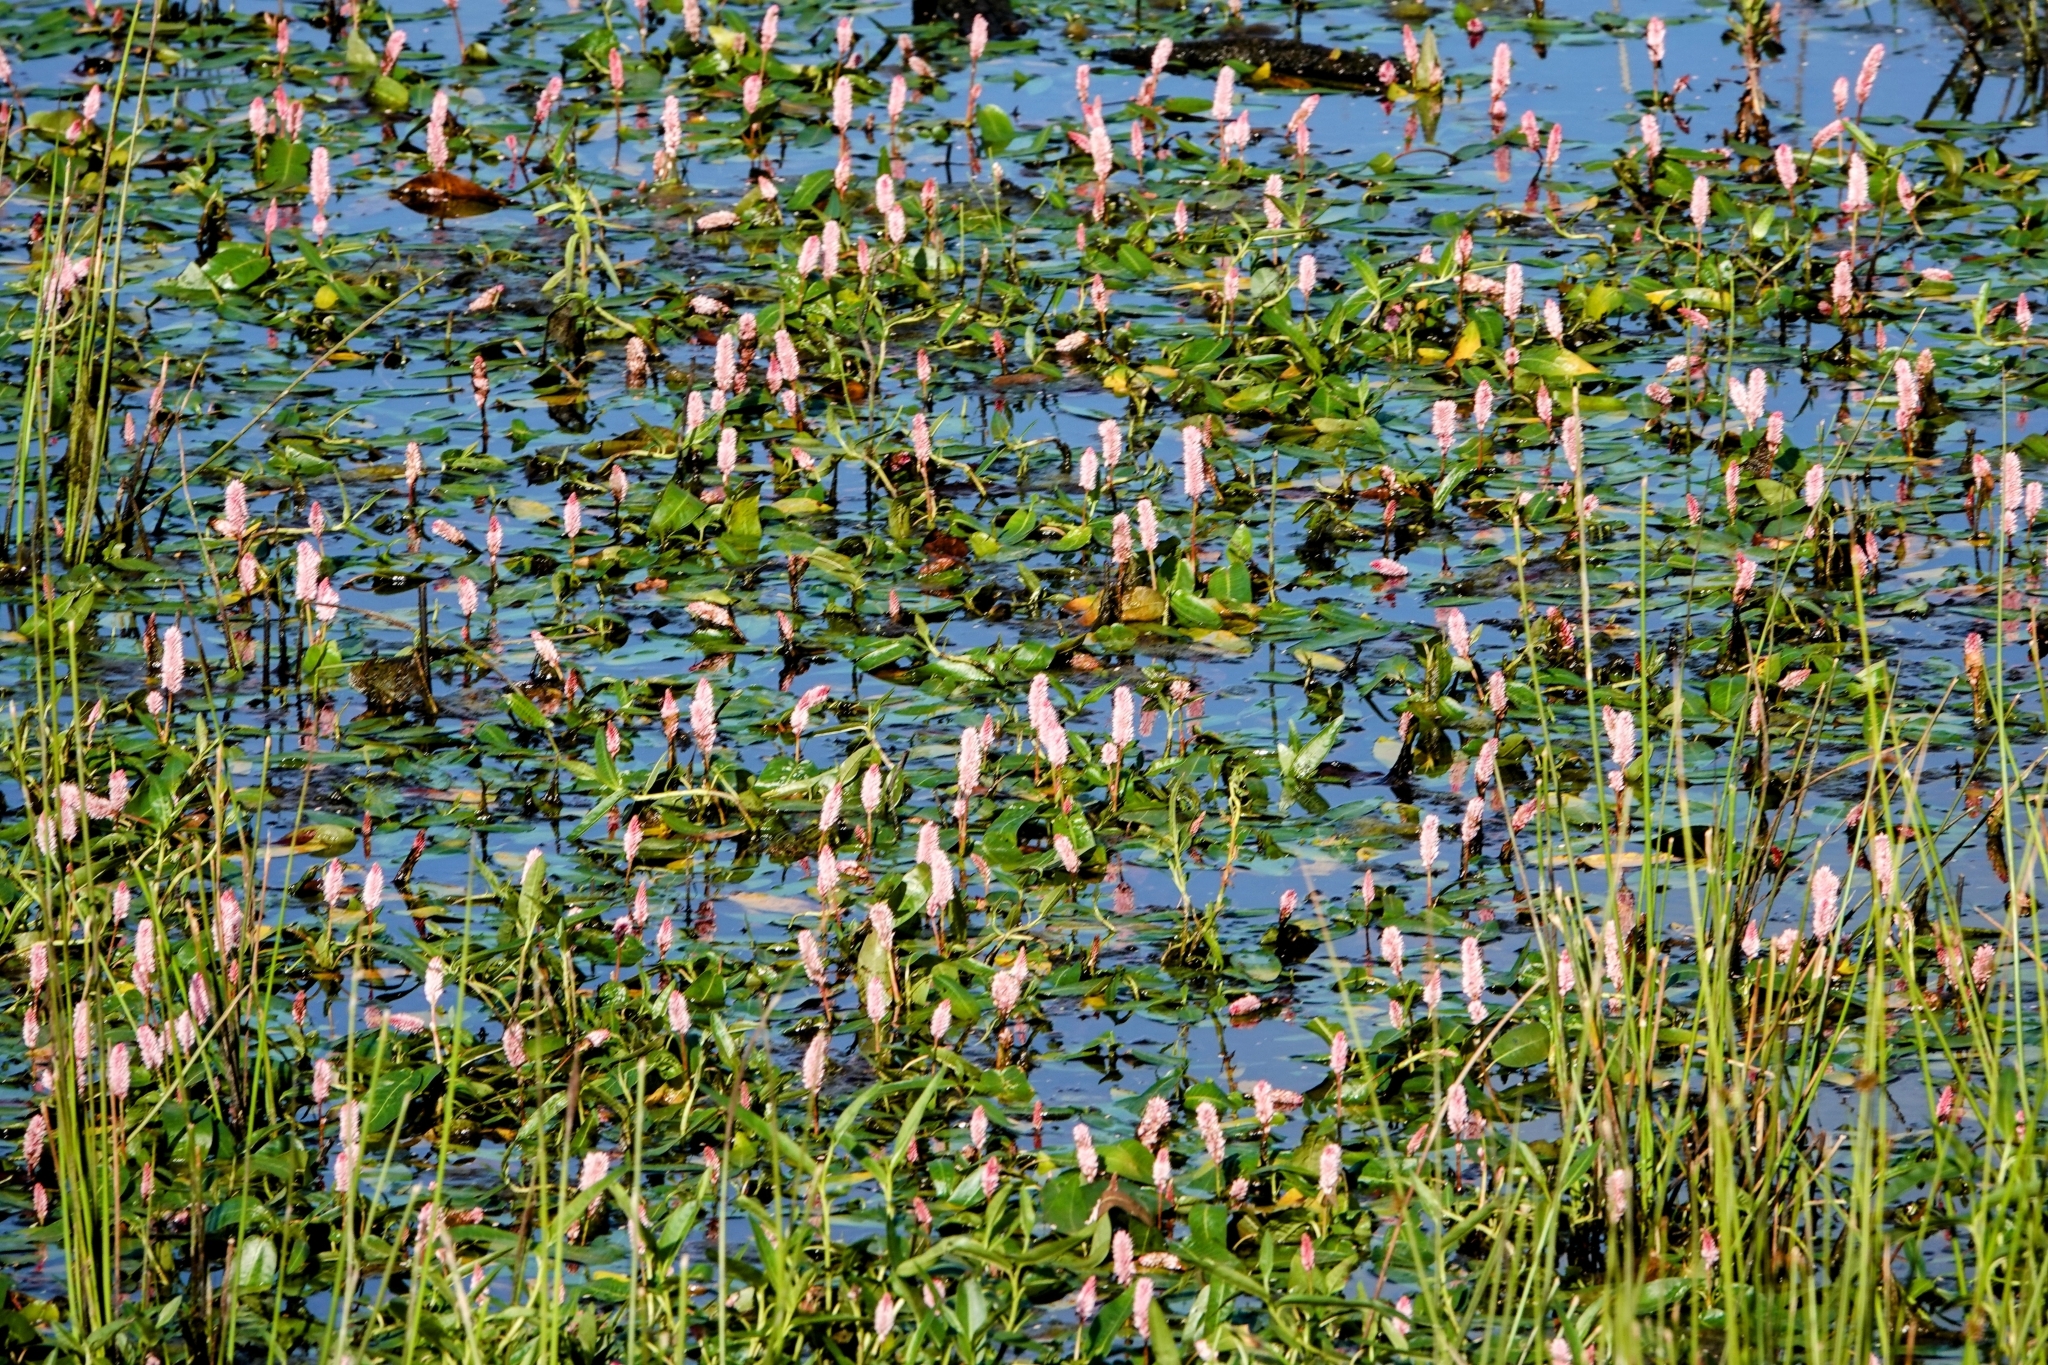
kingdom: Plantae
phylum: Tracheophyta
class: Magnoliopsida
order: Caryophyllales
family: Polygonaceae
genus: Persicaria
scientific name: Persicaria amphibia
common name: Amphibious bistort
